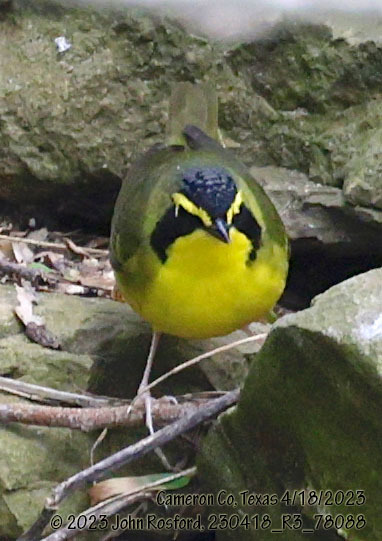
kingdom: Animalia
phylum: Chordata
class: Aves
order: Passeriformes
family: Parulidae
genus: Geothlypis
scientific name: Geothlypis formosa
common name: Kentucky warbler
